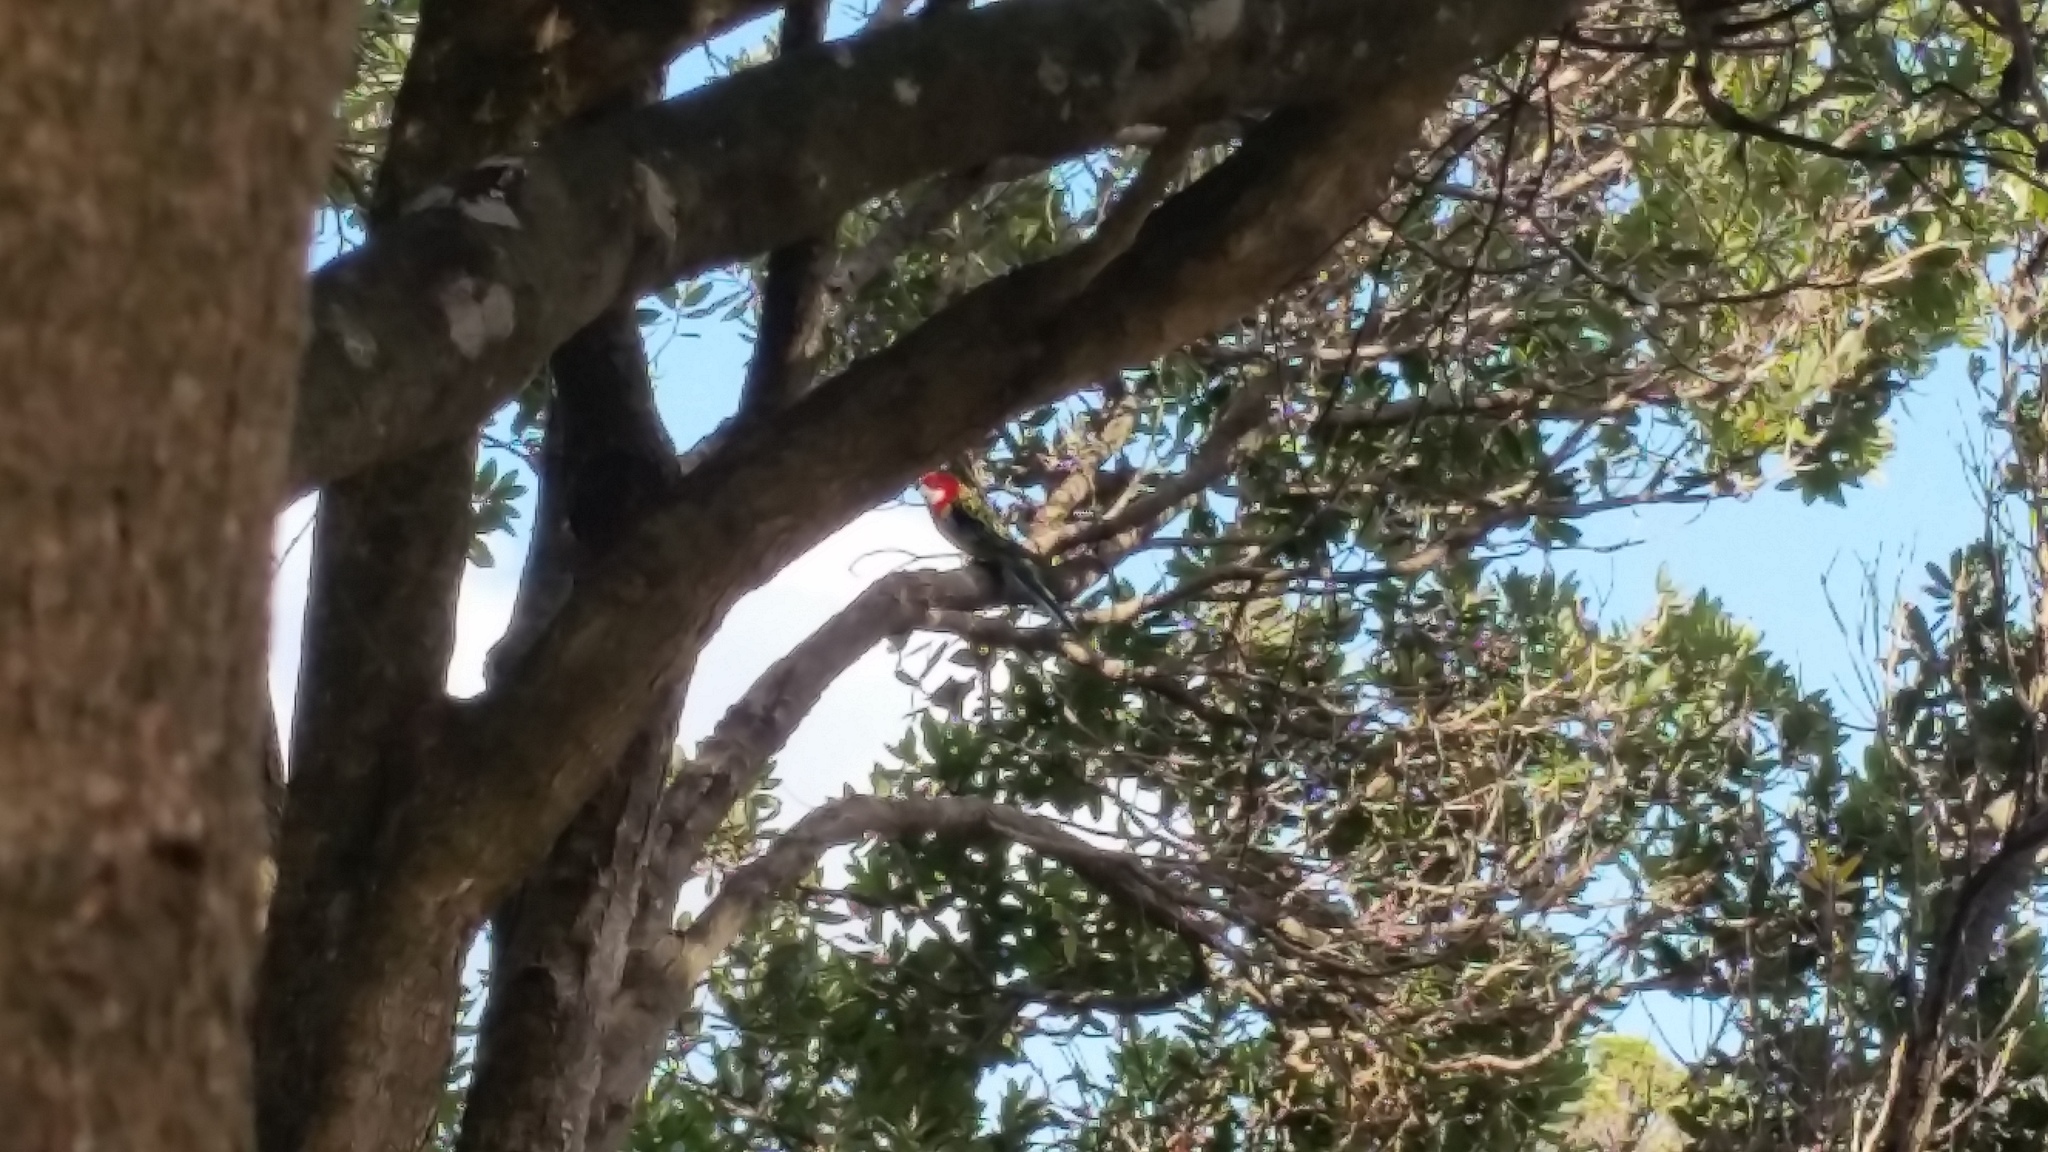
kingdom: Animalia
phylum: Chordata
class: Aves
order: Psittaciformes
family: Psittacidae
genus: Platycercus
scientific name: Platycercus eximius
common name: Eastern rosella
